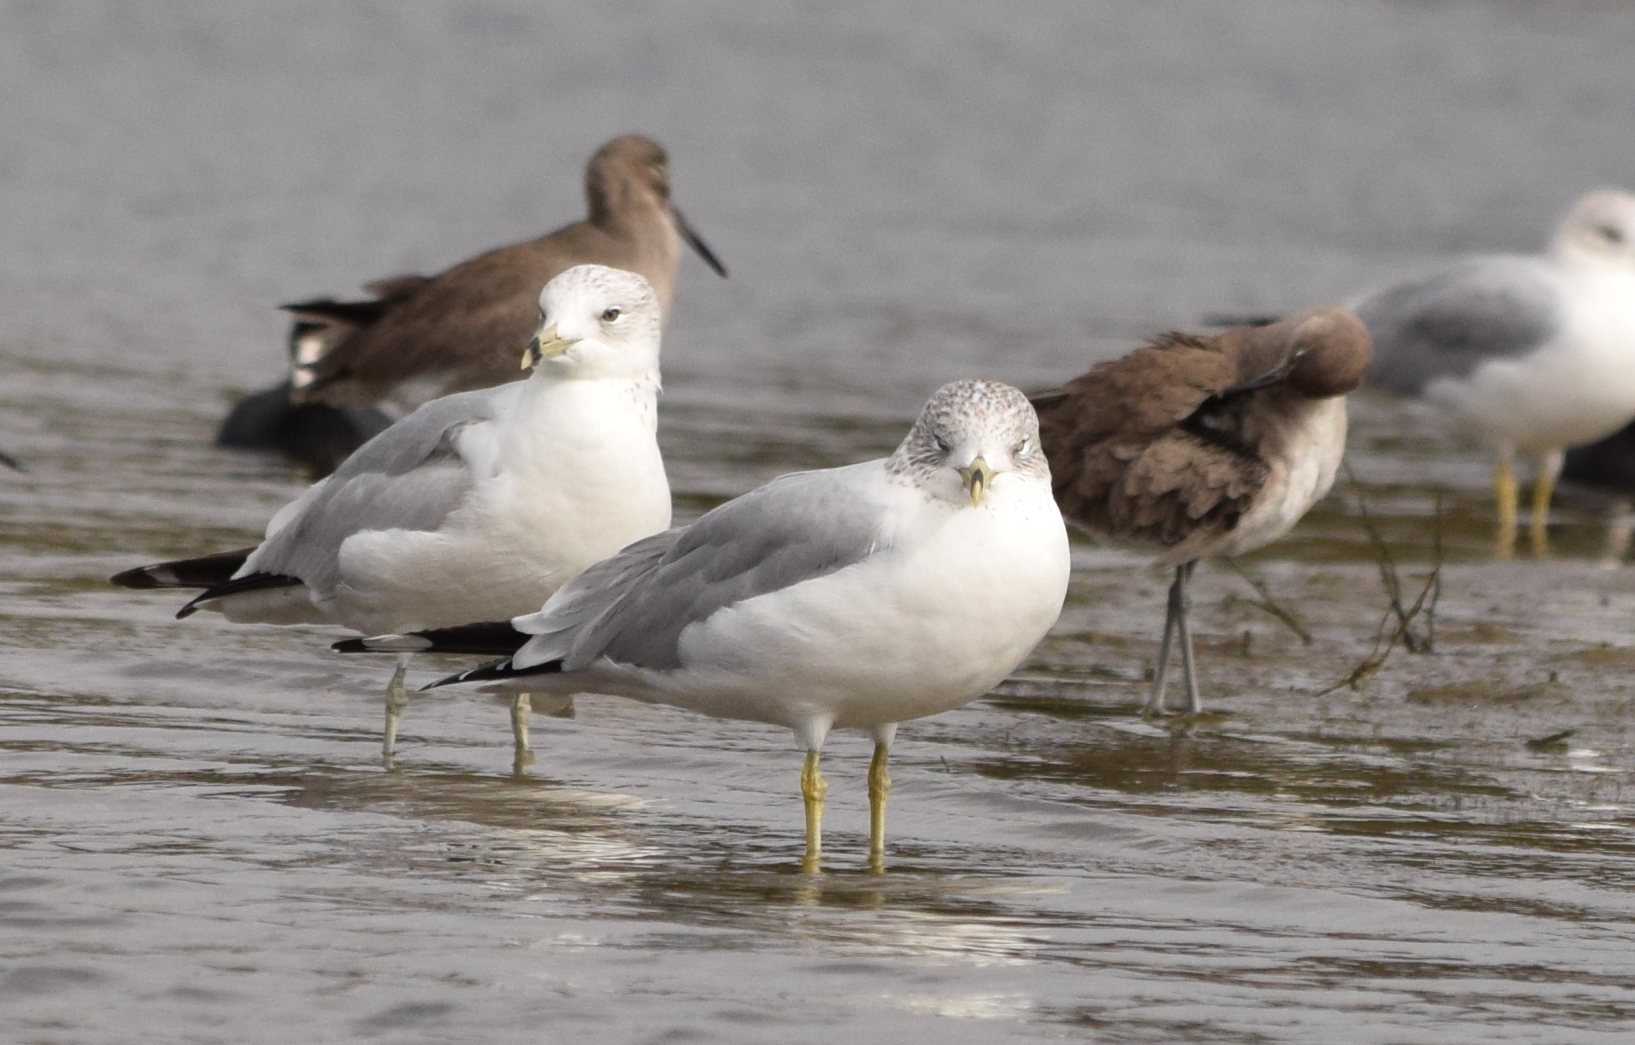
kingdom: Animalia
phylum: Chordata
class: Aves
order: Charadriiformes
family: Laridae
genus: Larus
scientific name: Larus delawarensis
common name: Ring-billed gull
